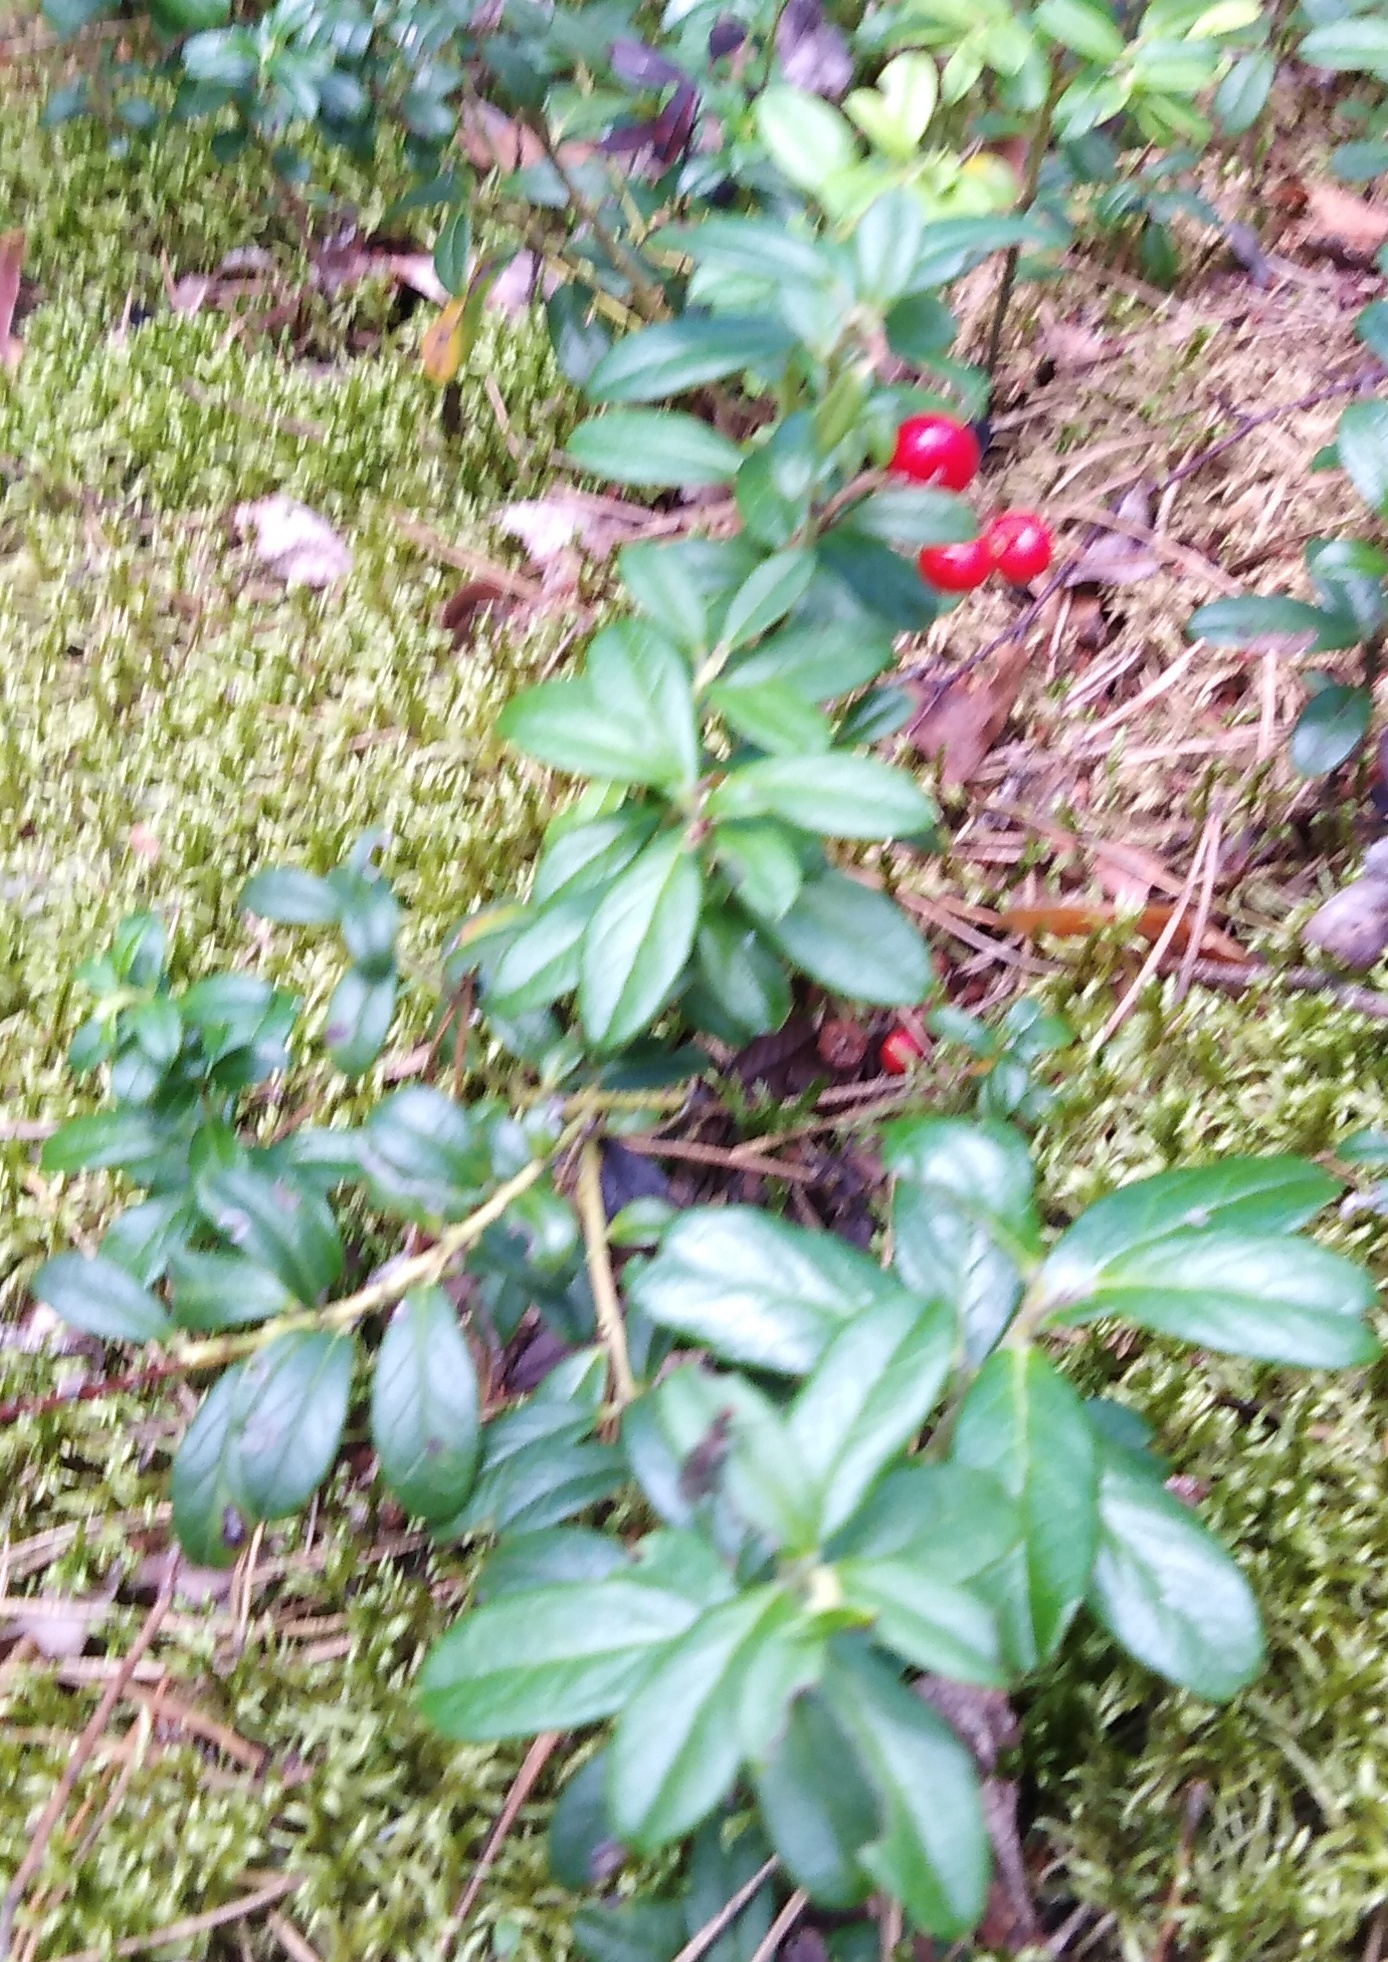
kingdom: Plantae
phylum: Tracheophyta
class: Magnoliopsida
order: Ericales
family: Ericaceae
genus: Vaccinium
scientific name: Vaccinium vitis-idaea
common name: Cowberry
